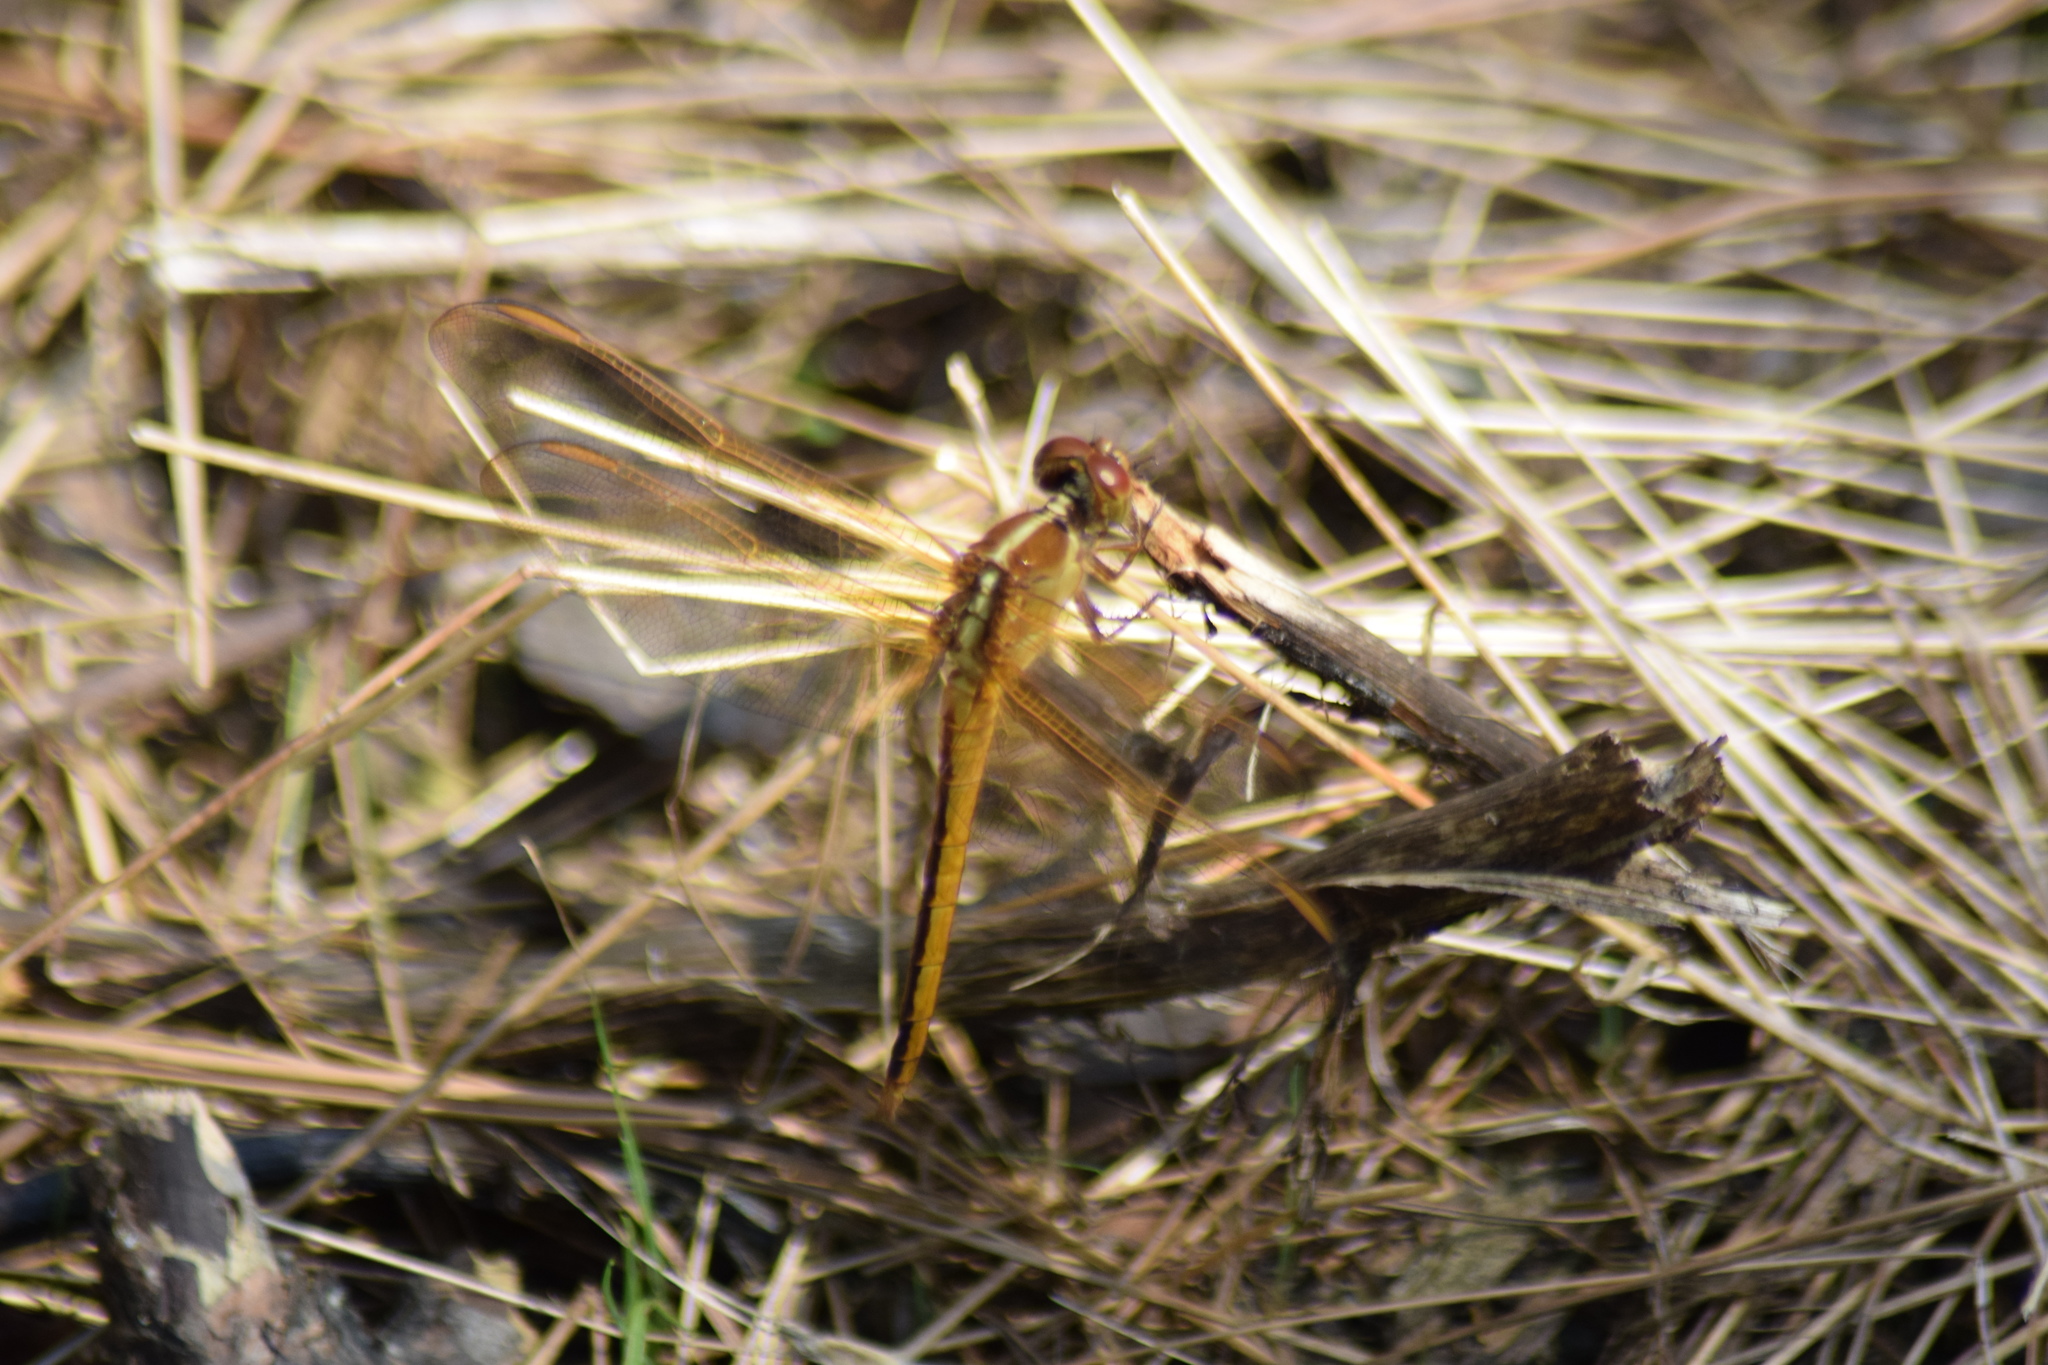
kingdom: Animalia
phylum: Arthropoda
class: Insecta
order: Odonata
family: Libellulidae
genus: Libellula
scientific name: Libellula needhami
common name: Needham's skimmer
